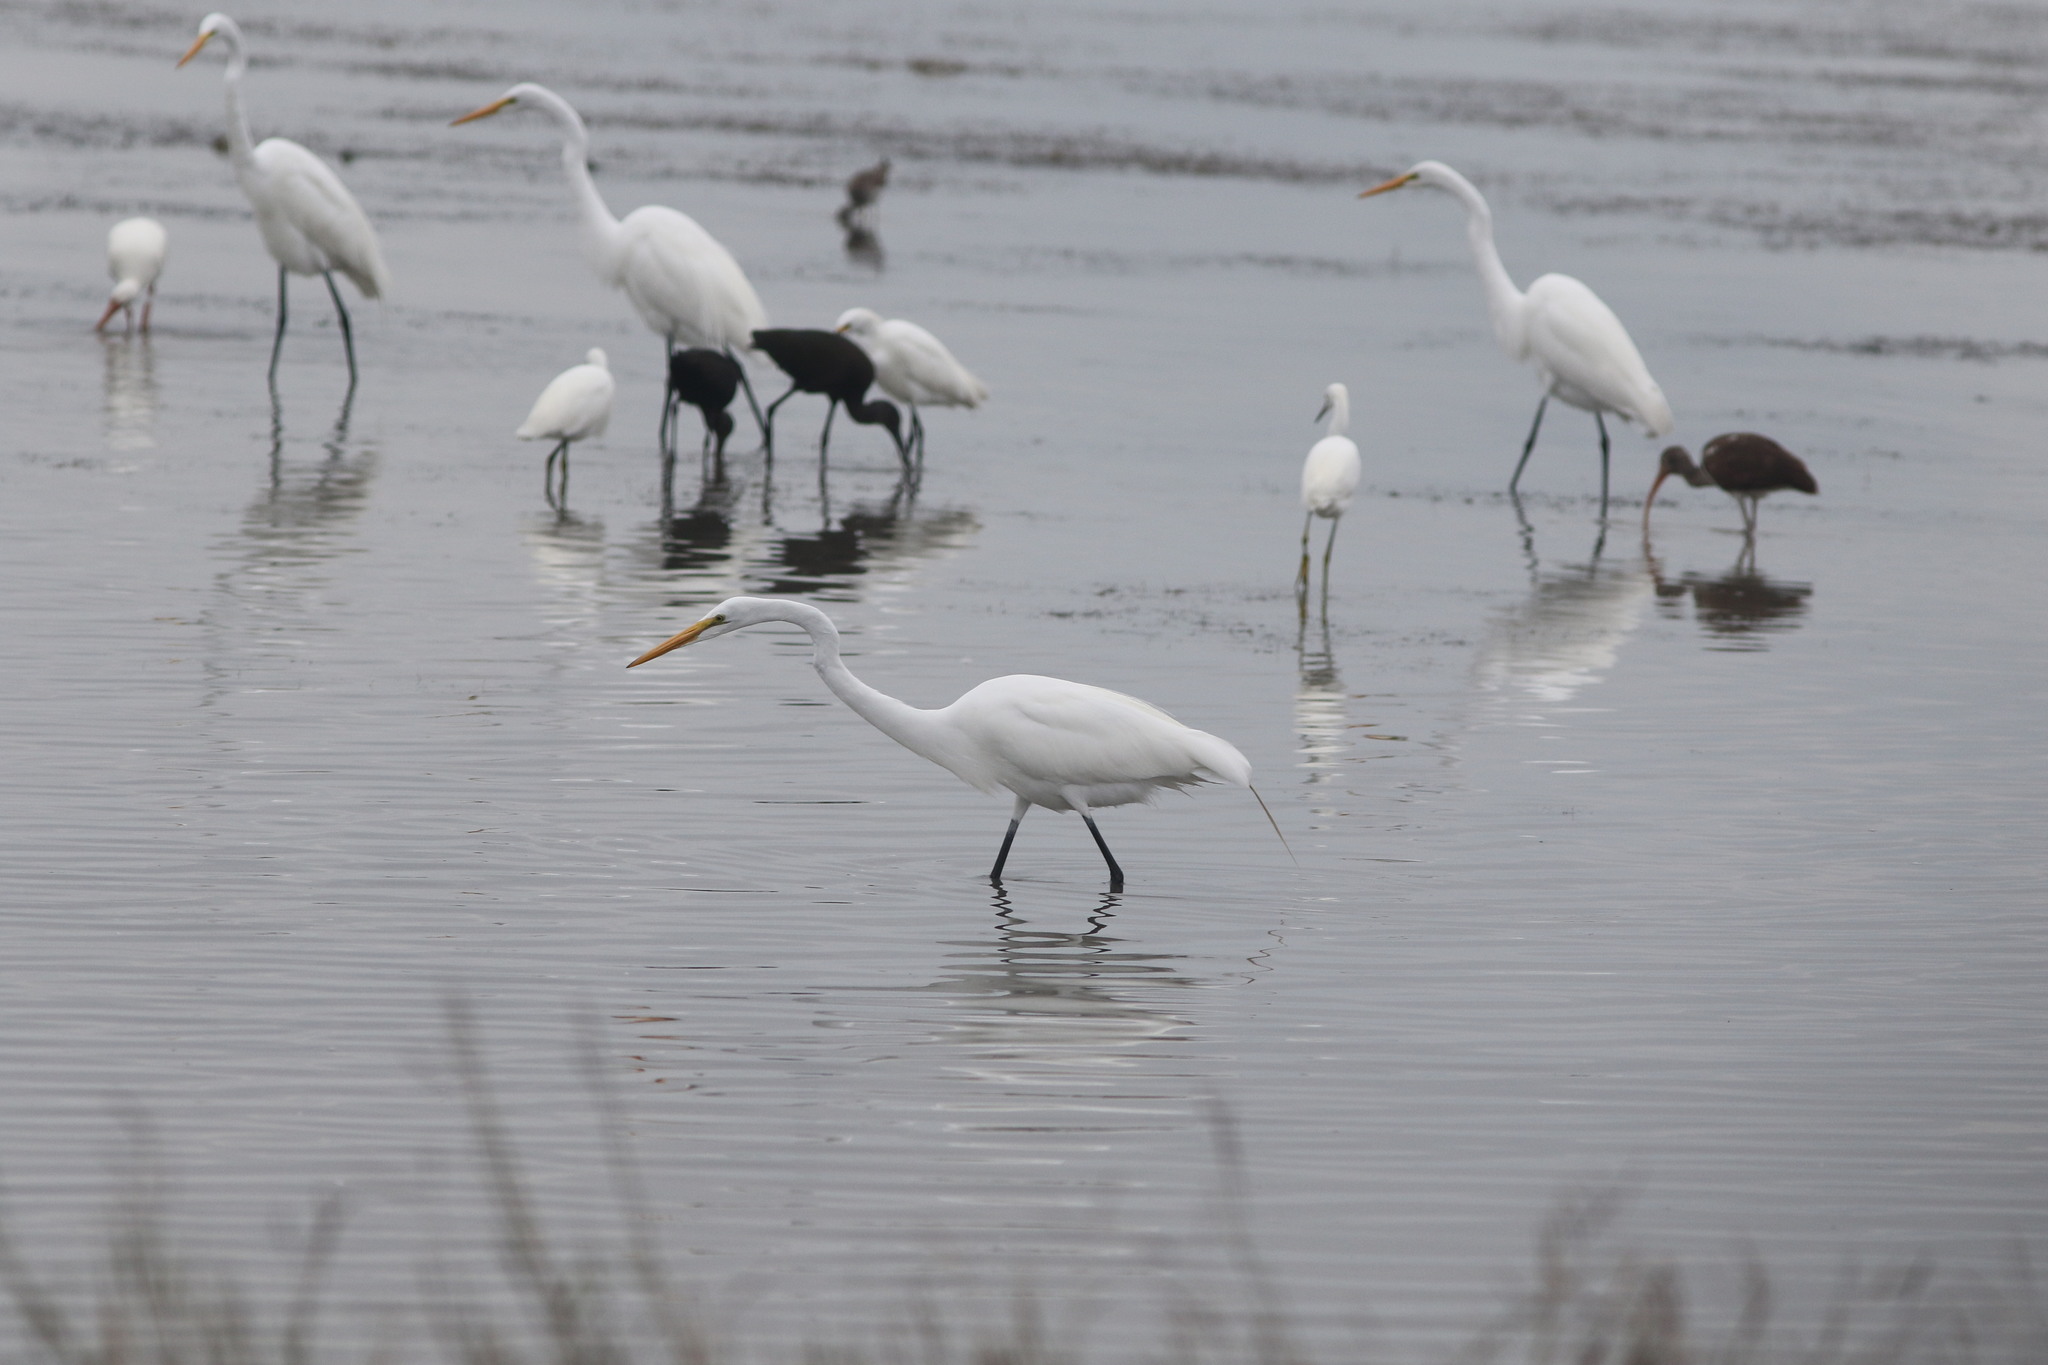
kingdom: Animalia
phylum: Chordata
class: Aves
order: Pelecaniformes
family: Ardeidae
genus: Ardea
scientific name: Ardea alba
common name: Great egret
